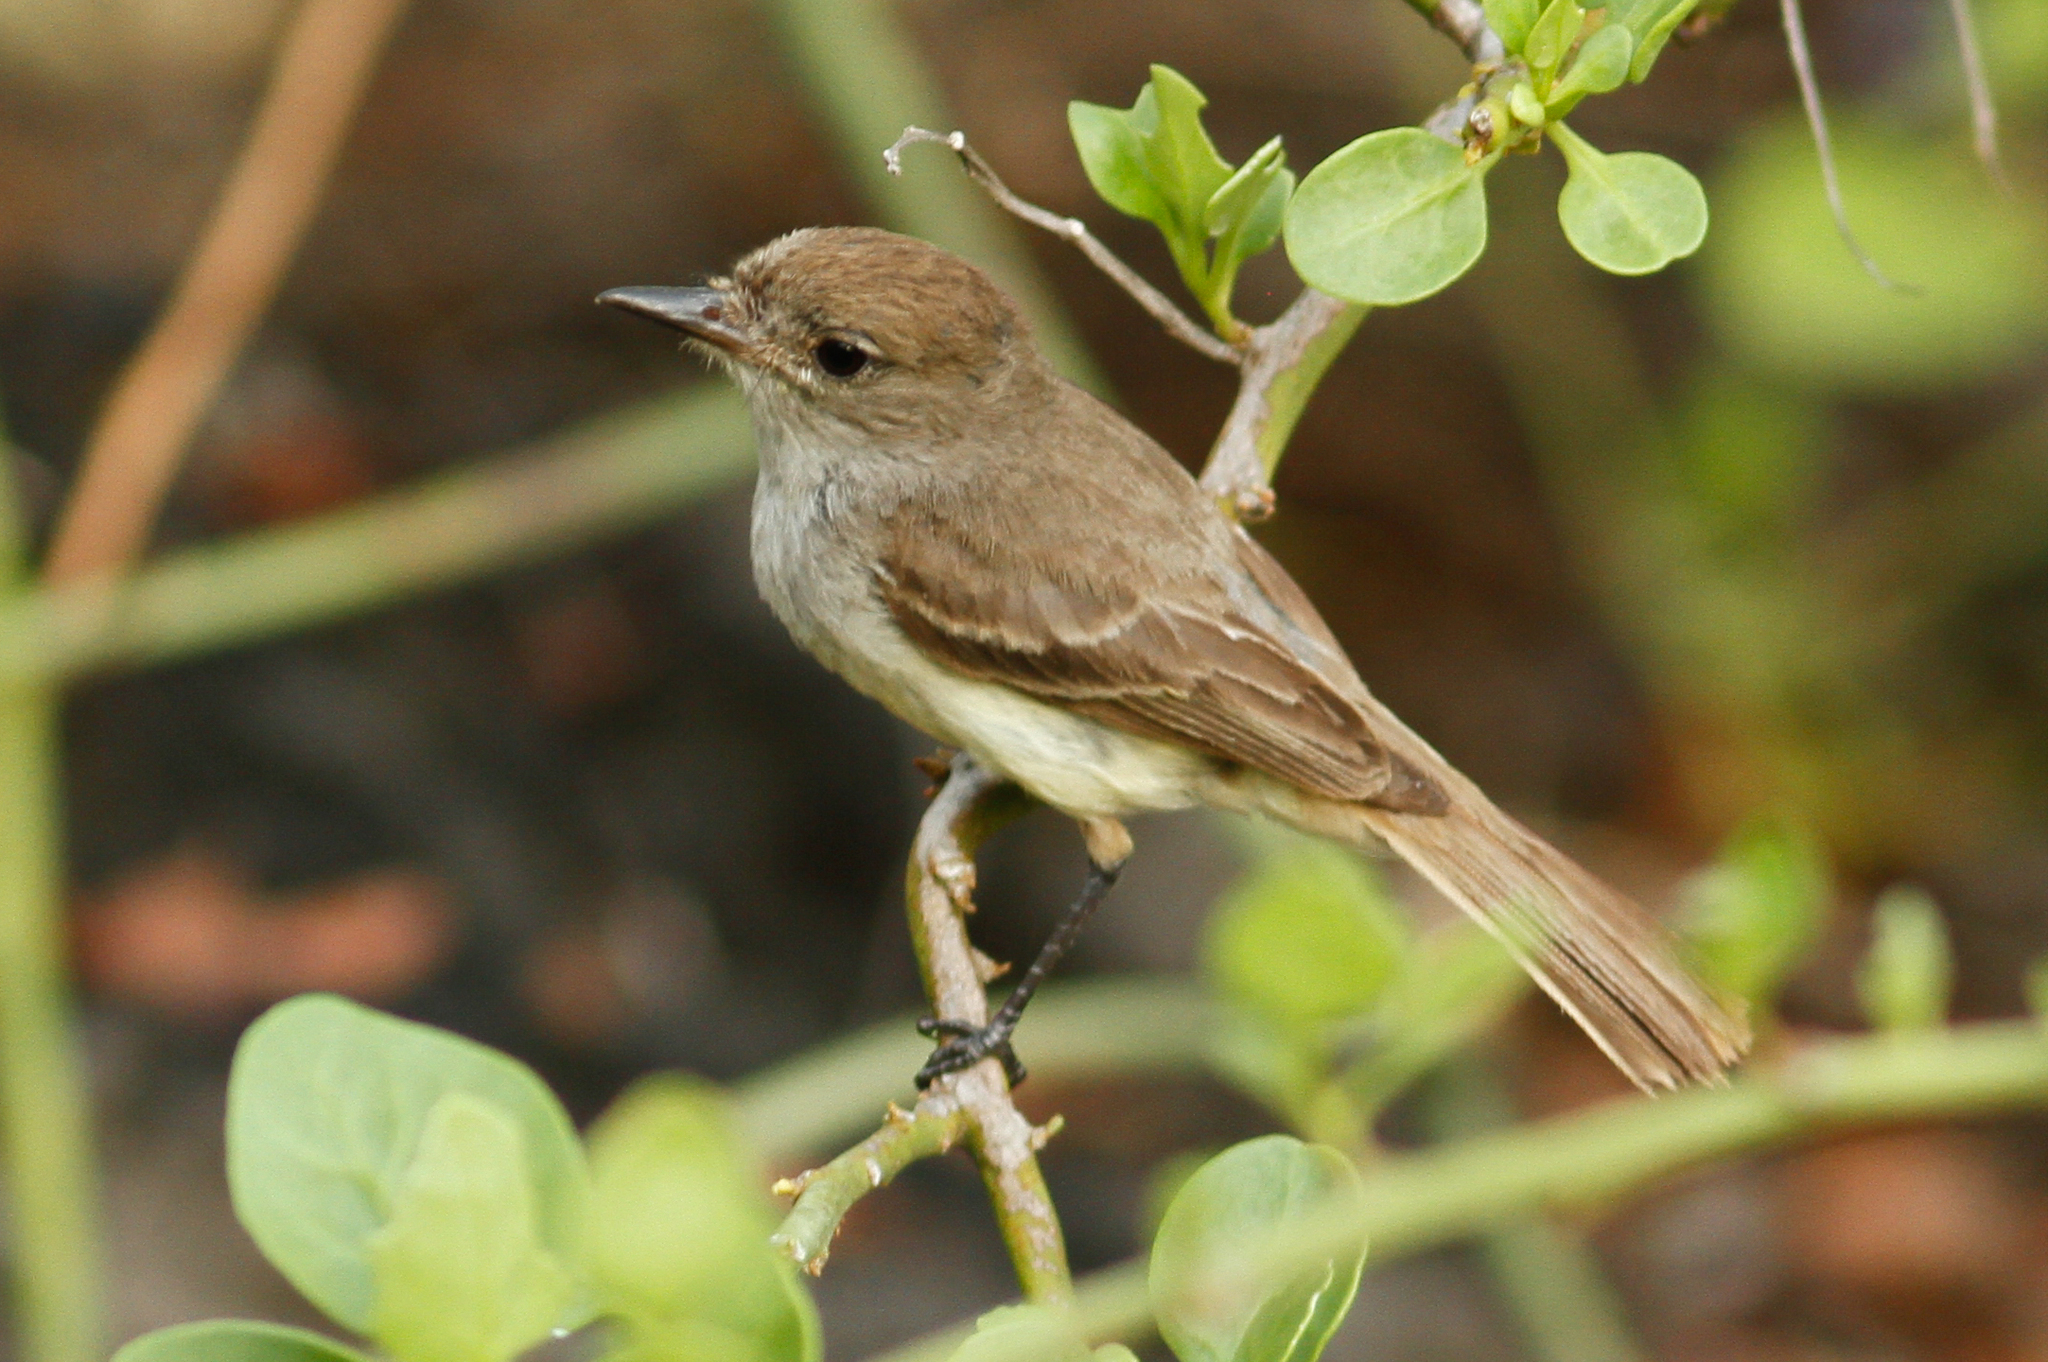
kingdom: Animalia
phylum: Chordata
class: Aves
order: Passeriformes
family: Tyrannidae
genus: Myiarchus
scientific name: Myiarchus magnirostris
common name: Galapagos flycatcher
